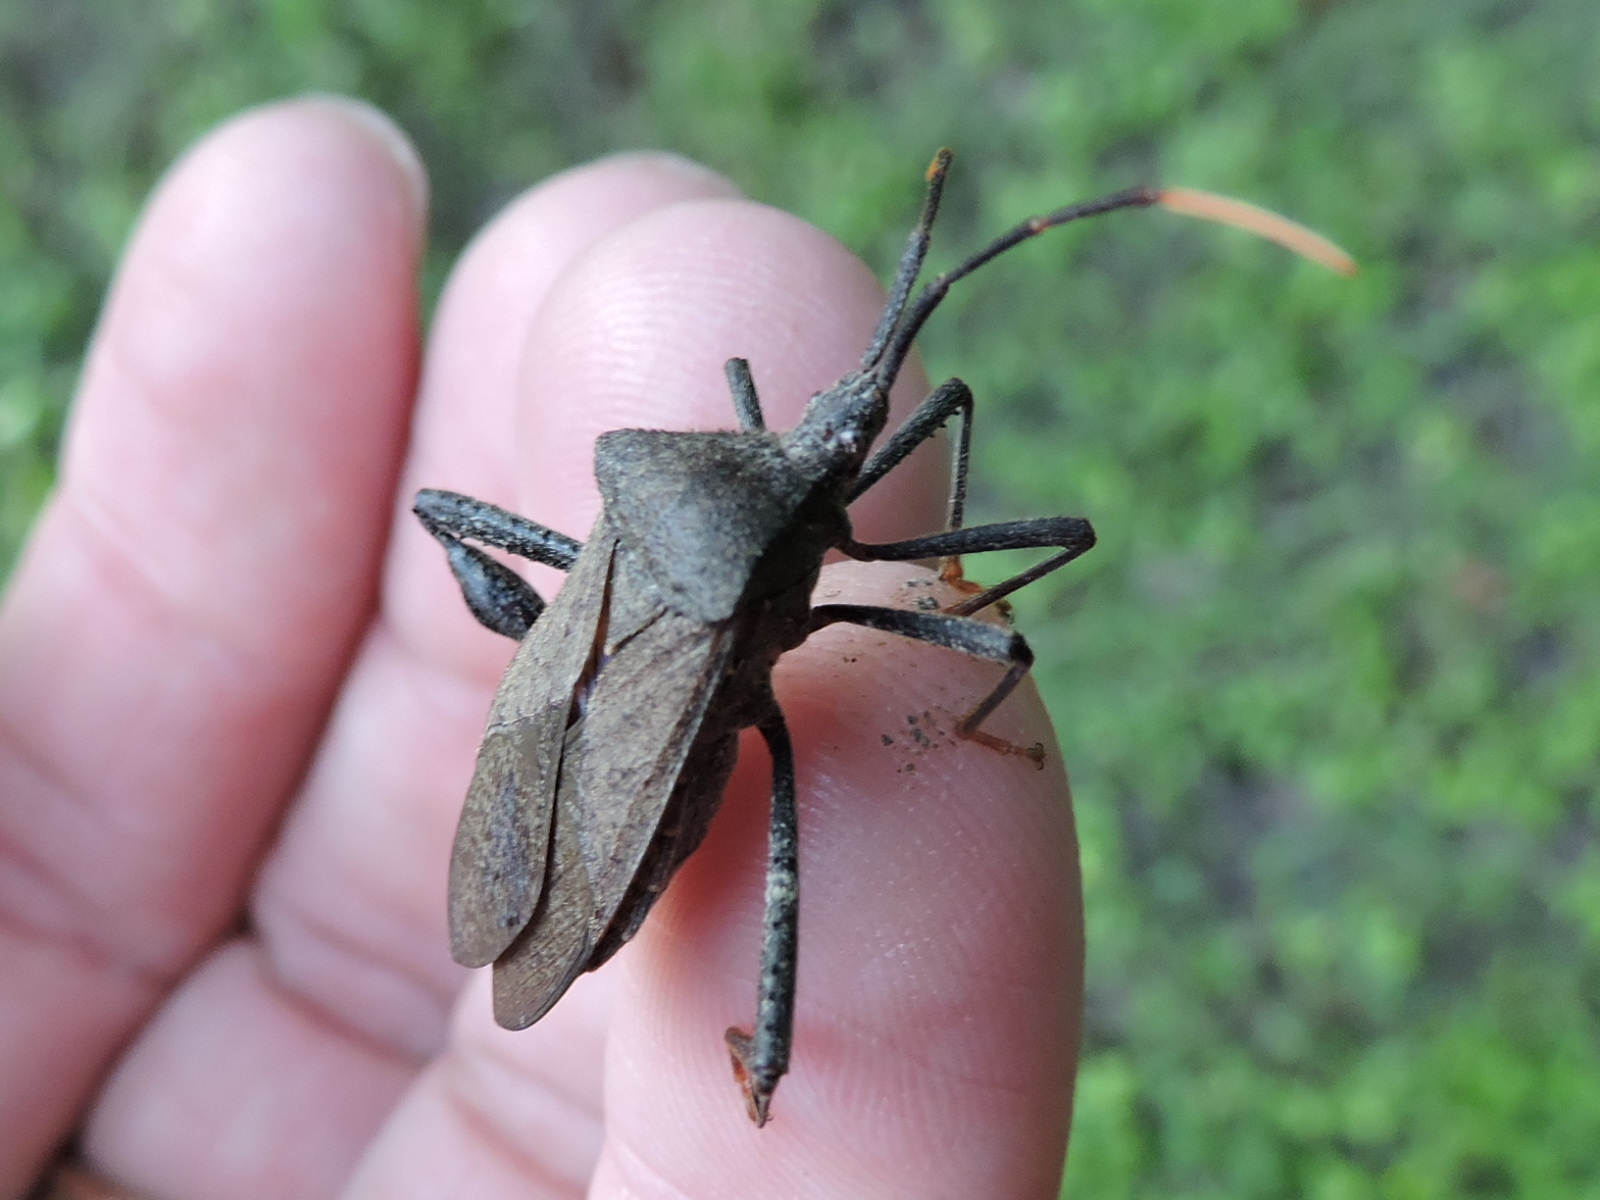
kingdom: Animalia
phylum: Arthropoda
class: Insecta
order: Hemiptera
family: Coreidae
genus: Acanthocephala
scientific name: Acanthocephala terminalis
